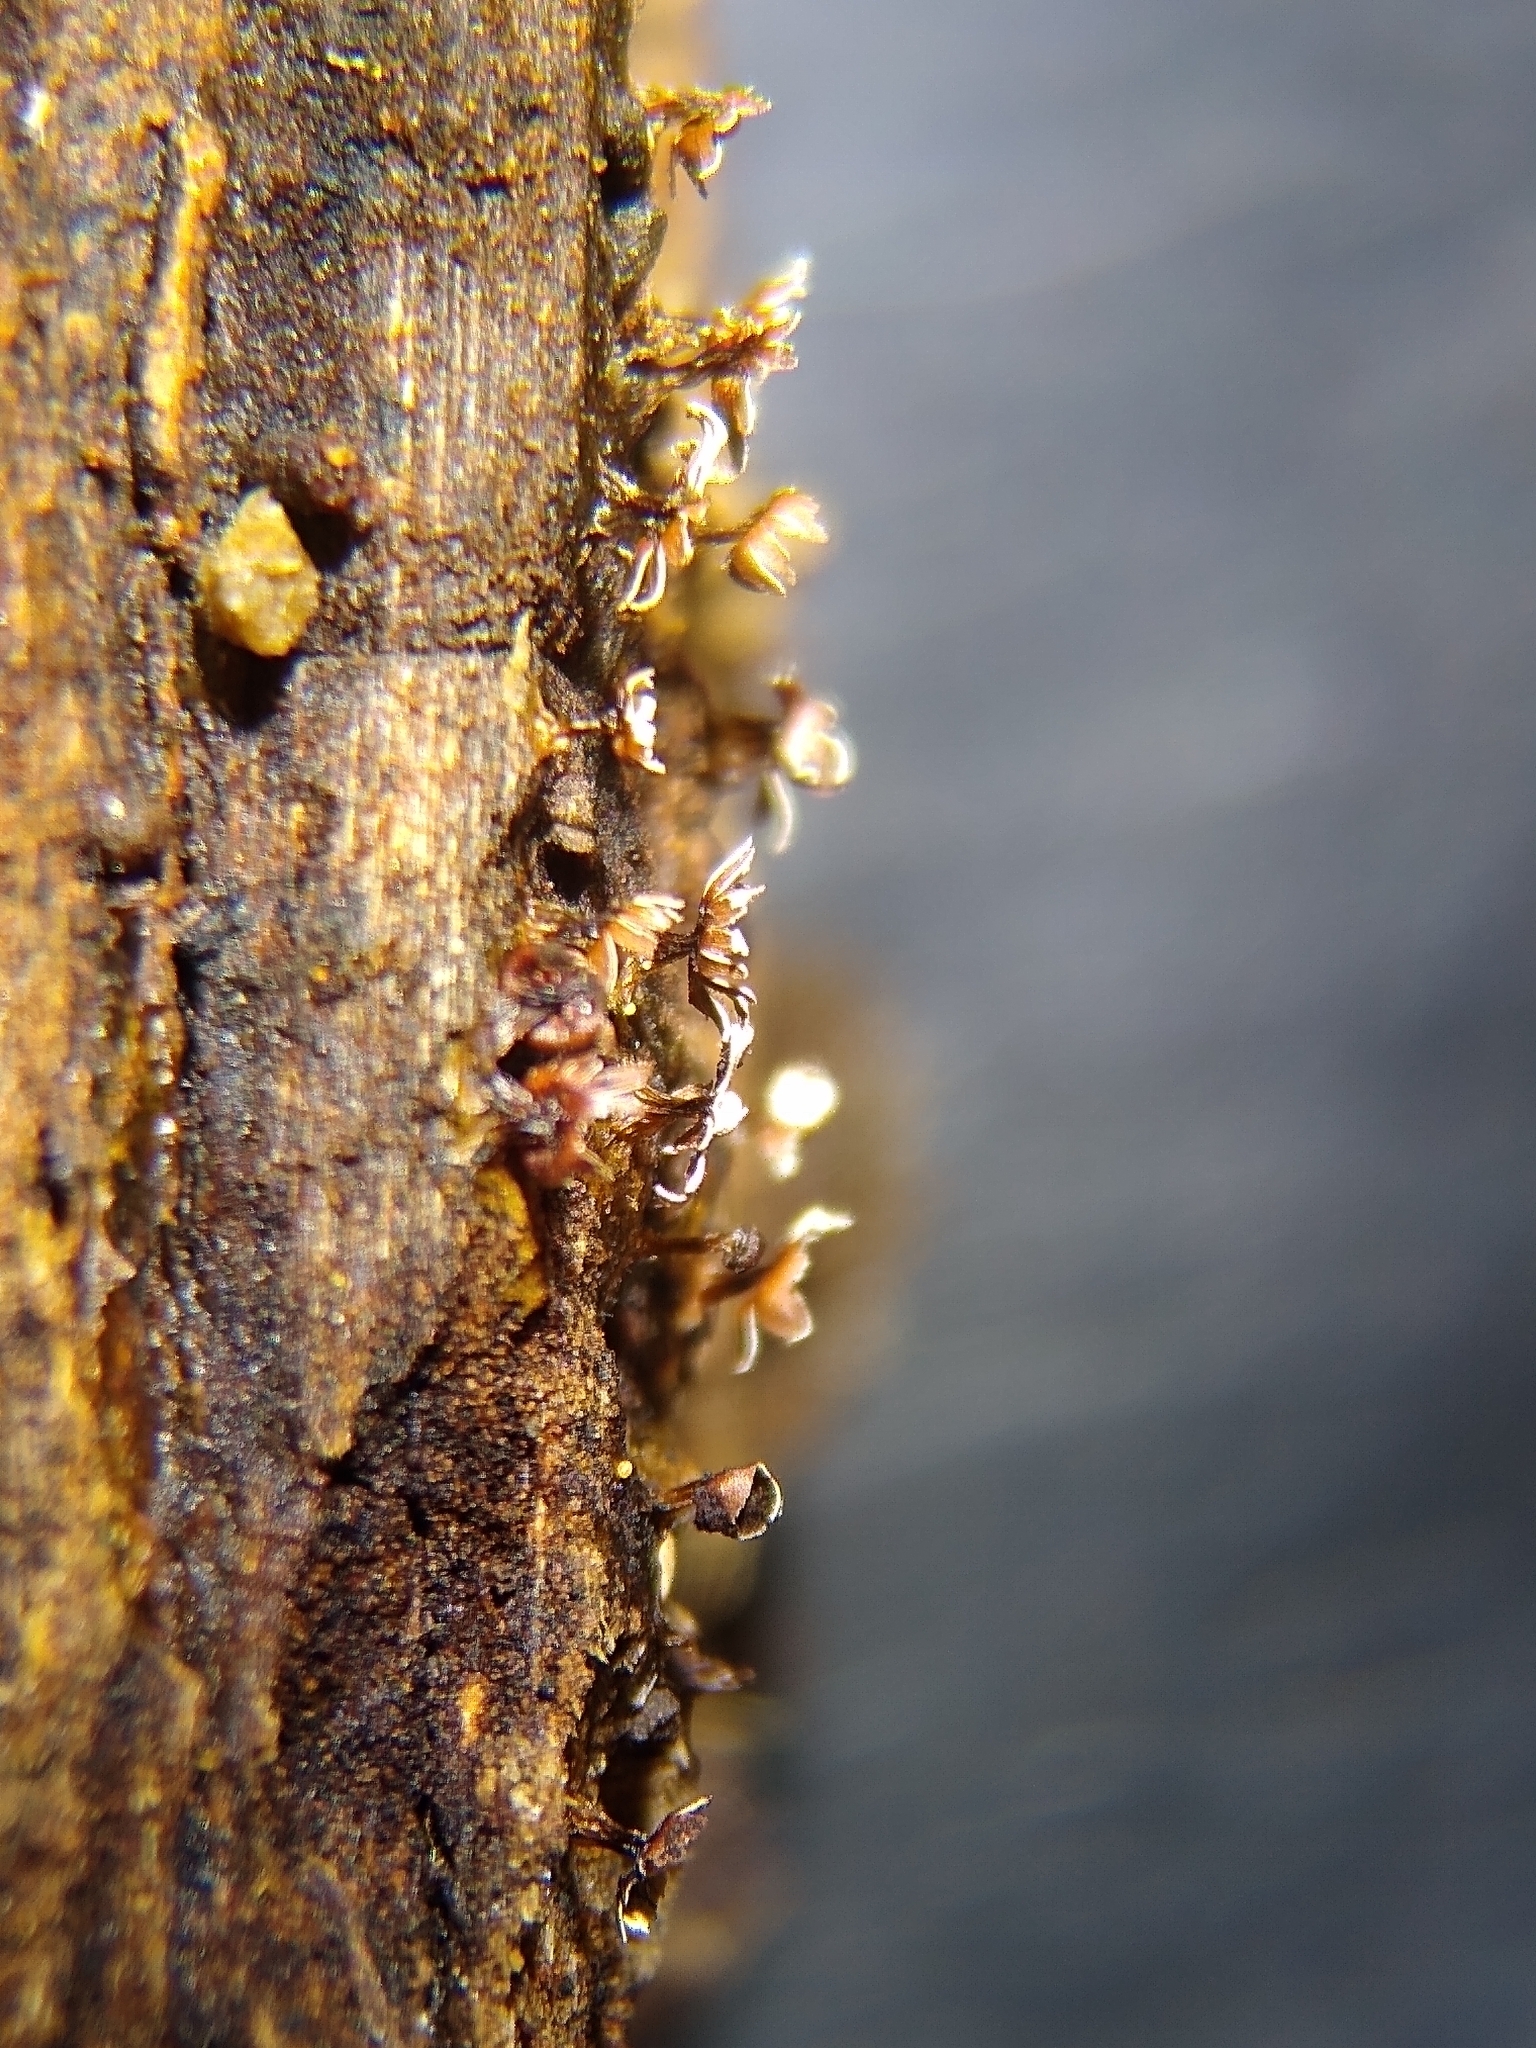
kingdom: Protozoa
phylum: Mycetozoa
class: Myxomycetes
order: Physarales
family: Didymiaceae
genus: Diderma
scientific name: Diderma subasteroides
